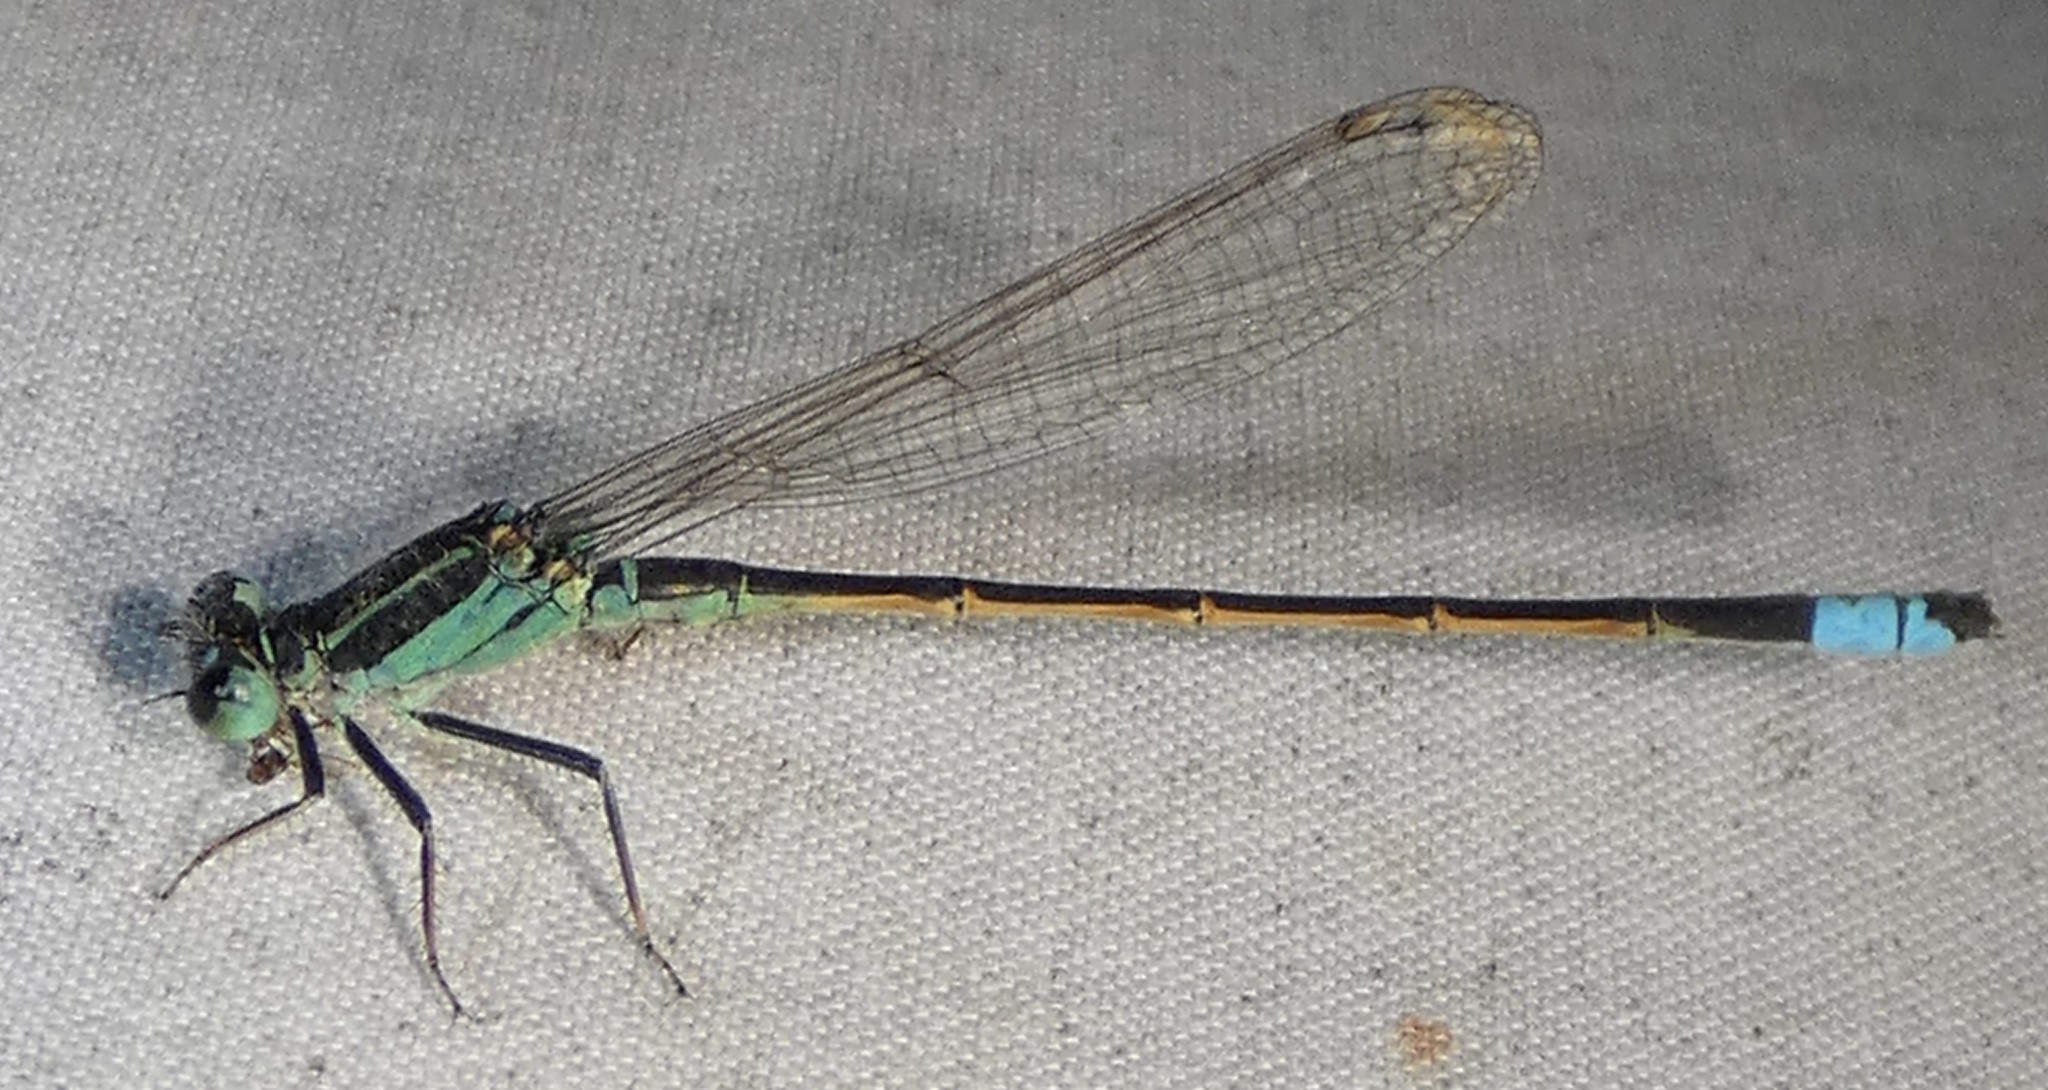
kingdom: Animalia
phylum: Arthropoda
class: Insecta
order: Odonata
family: Coenagrionidae
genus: Ischnura
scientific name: Ischnura ramburii
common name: Rambur's forktail
